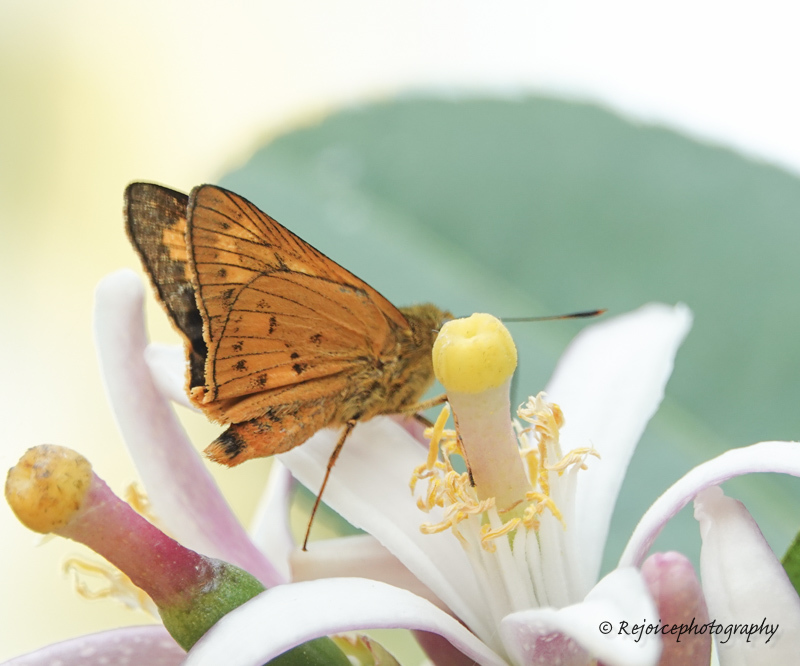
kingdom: Animalia
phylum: Arthropoda
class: Insecta
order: Lepidoptera
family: Hesperiidae
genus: Cephrenes
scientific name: Cephrenes
